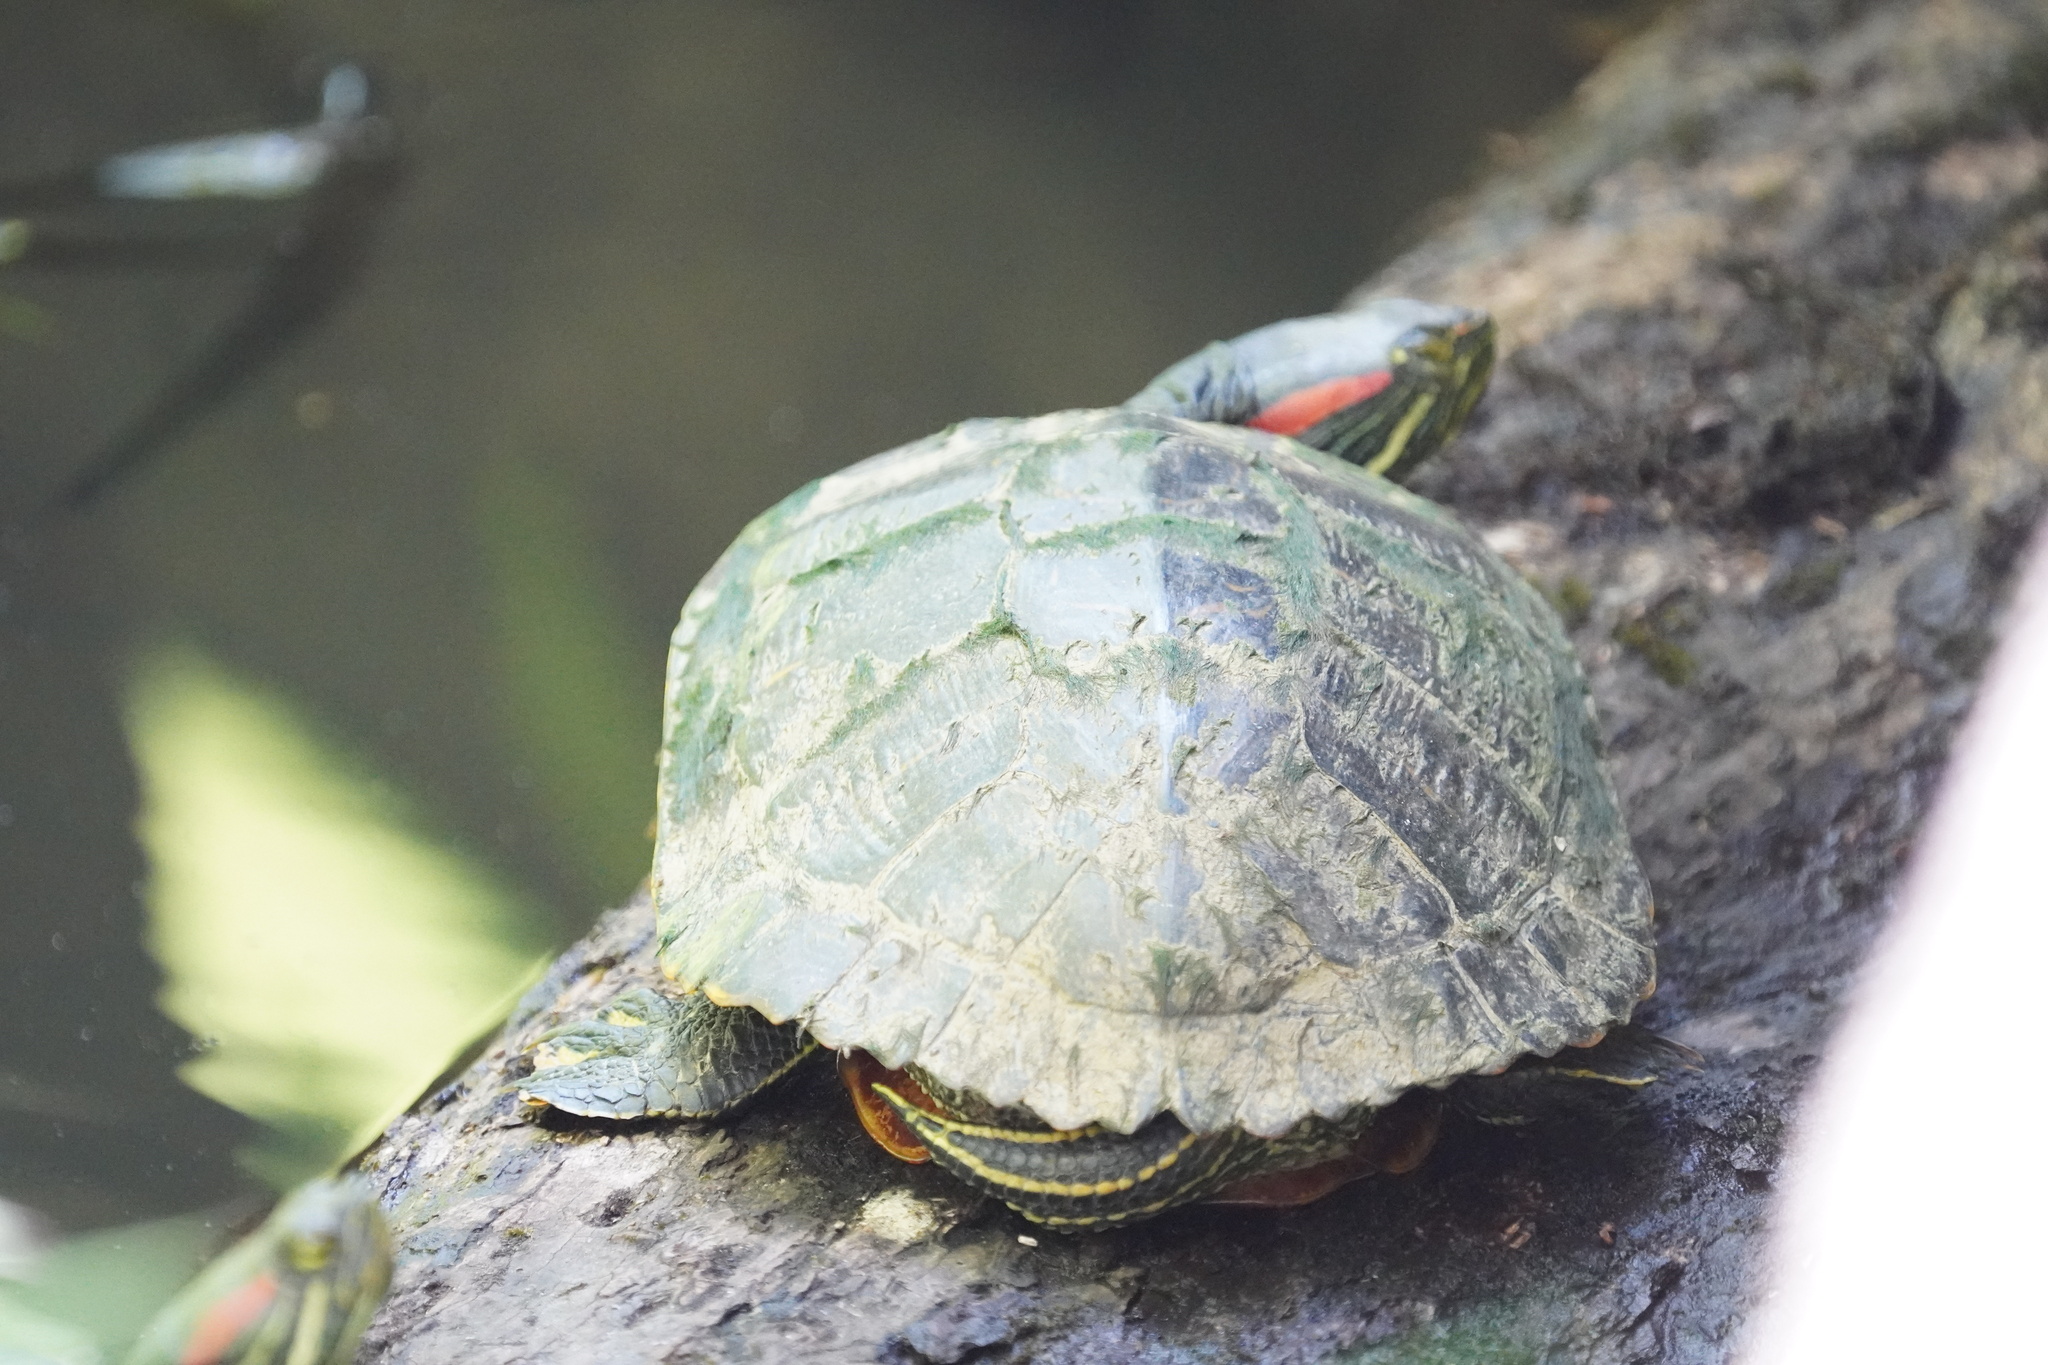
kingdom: Animalia
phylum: Chordata
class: Testudines
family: Emydidae
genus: Trachemys
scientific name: Trachemys scripta
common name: Slider
